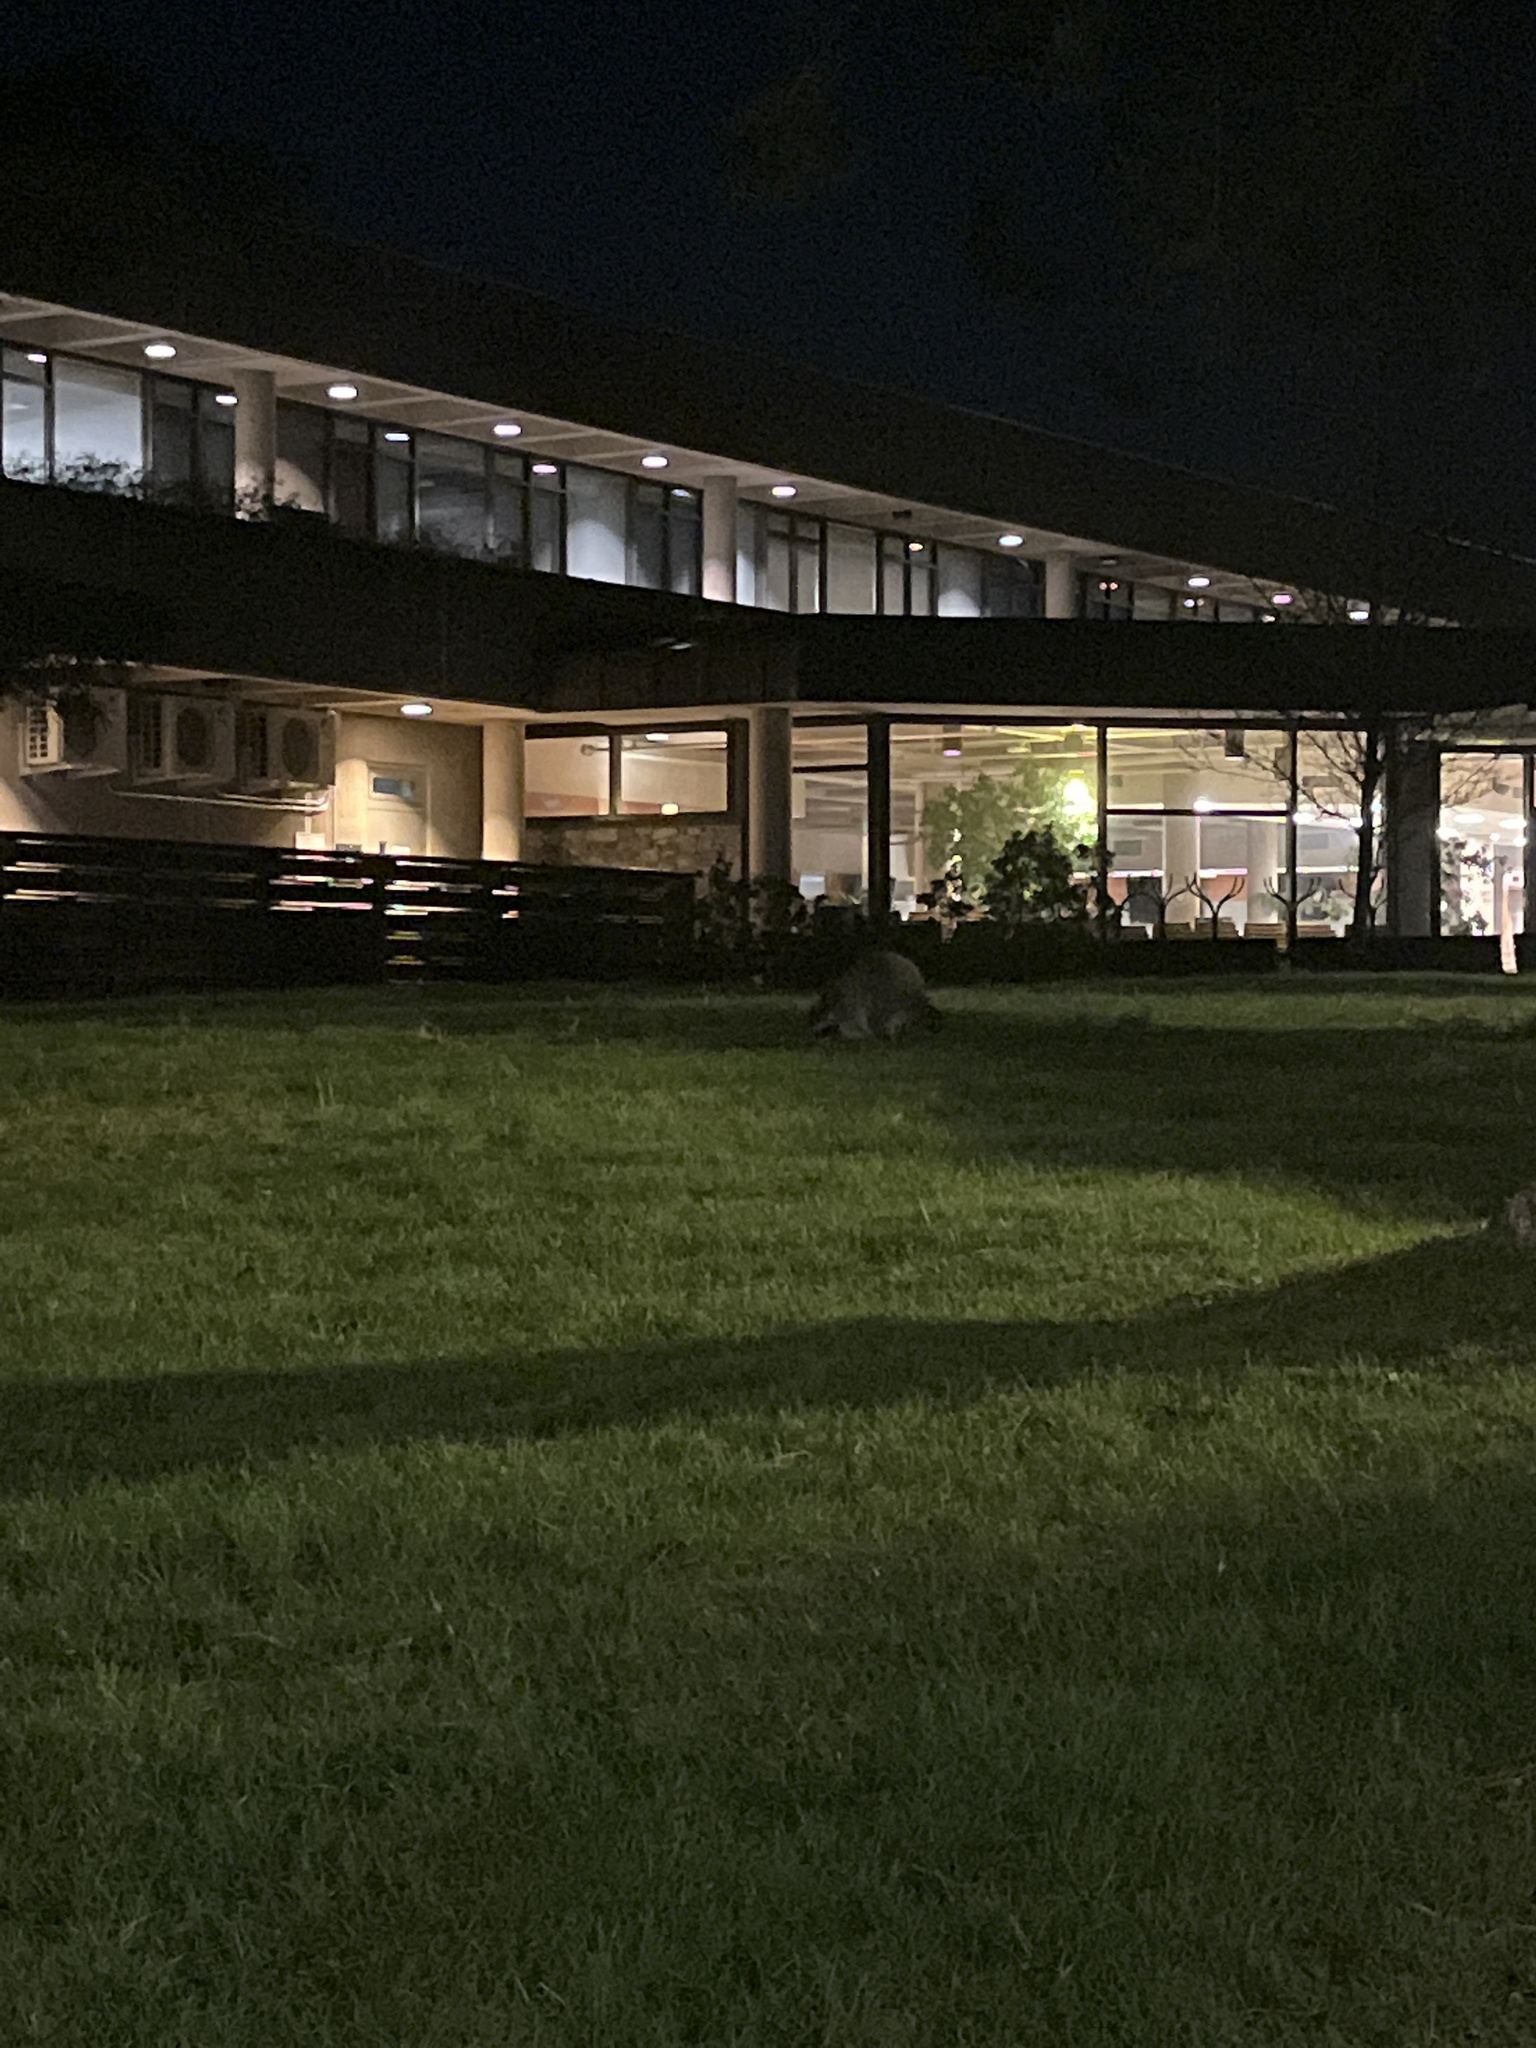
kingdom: Animalia
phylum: Chordata
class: Mammalia
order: Carnivora
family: Procyonidae
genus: Procyon
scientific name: Procyon lotor
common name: Raccoon
